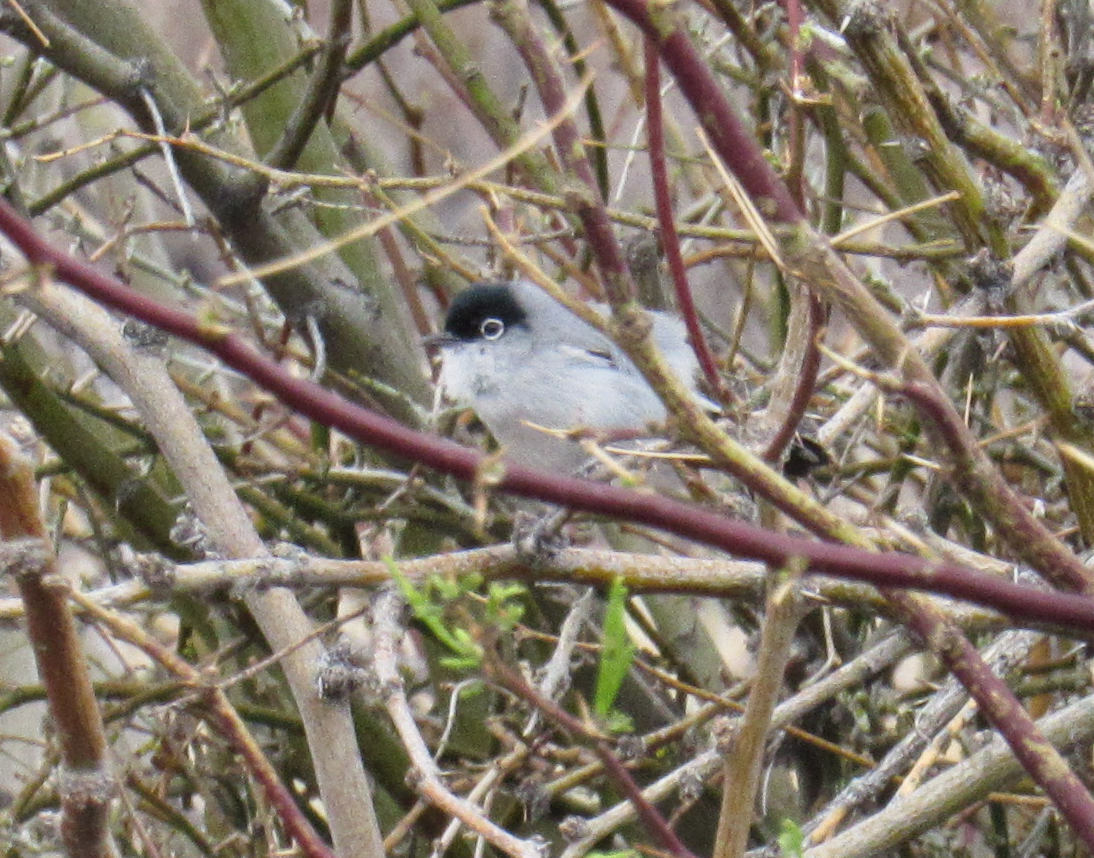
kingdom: Animalia
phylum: Chordata
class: Aves
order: Passeriformes
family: Polioptilidae
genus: Polioptila
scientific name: Polioptila melanura
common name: Black-tailed gnatcatcher
